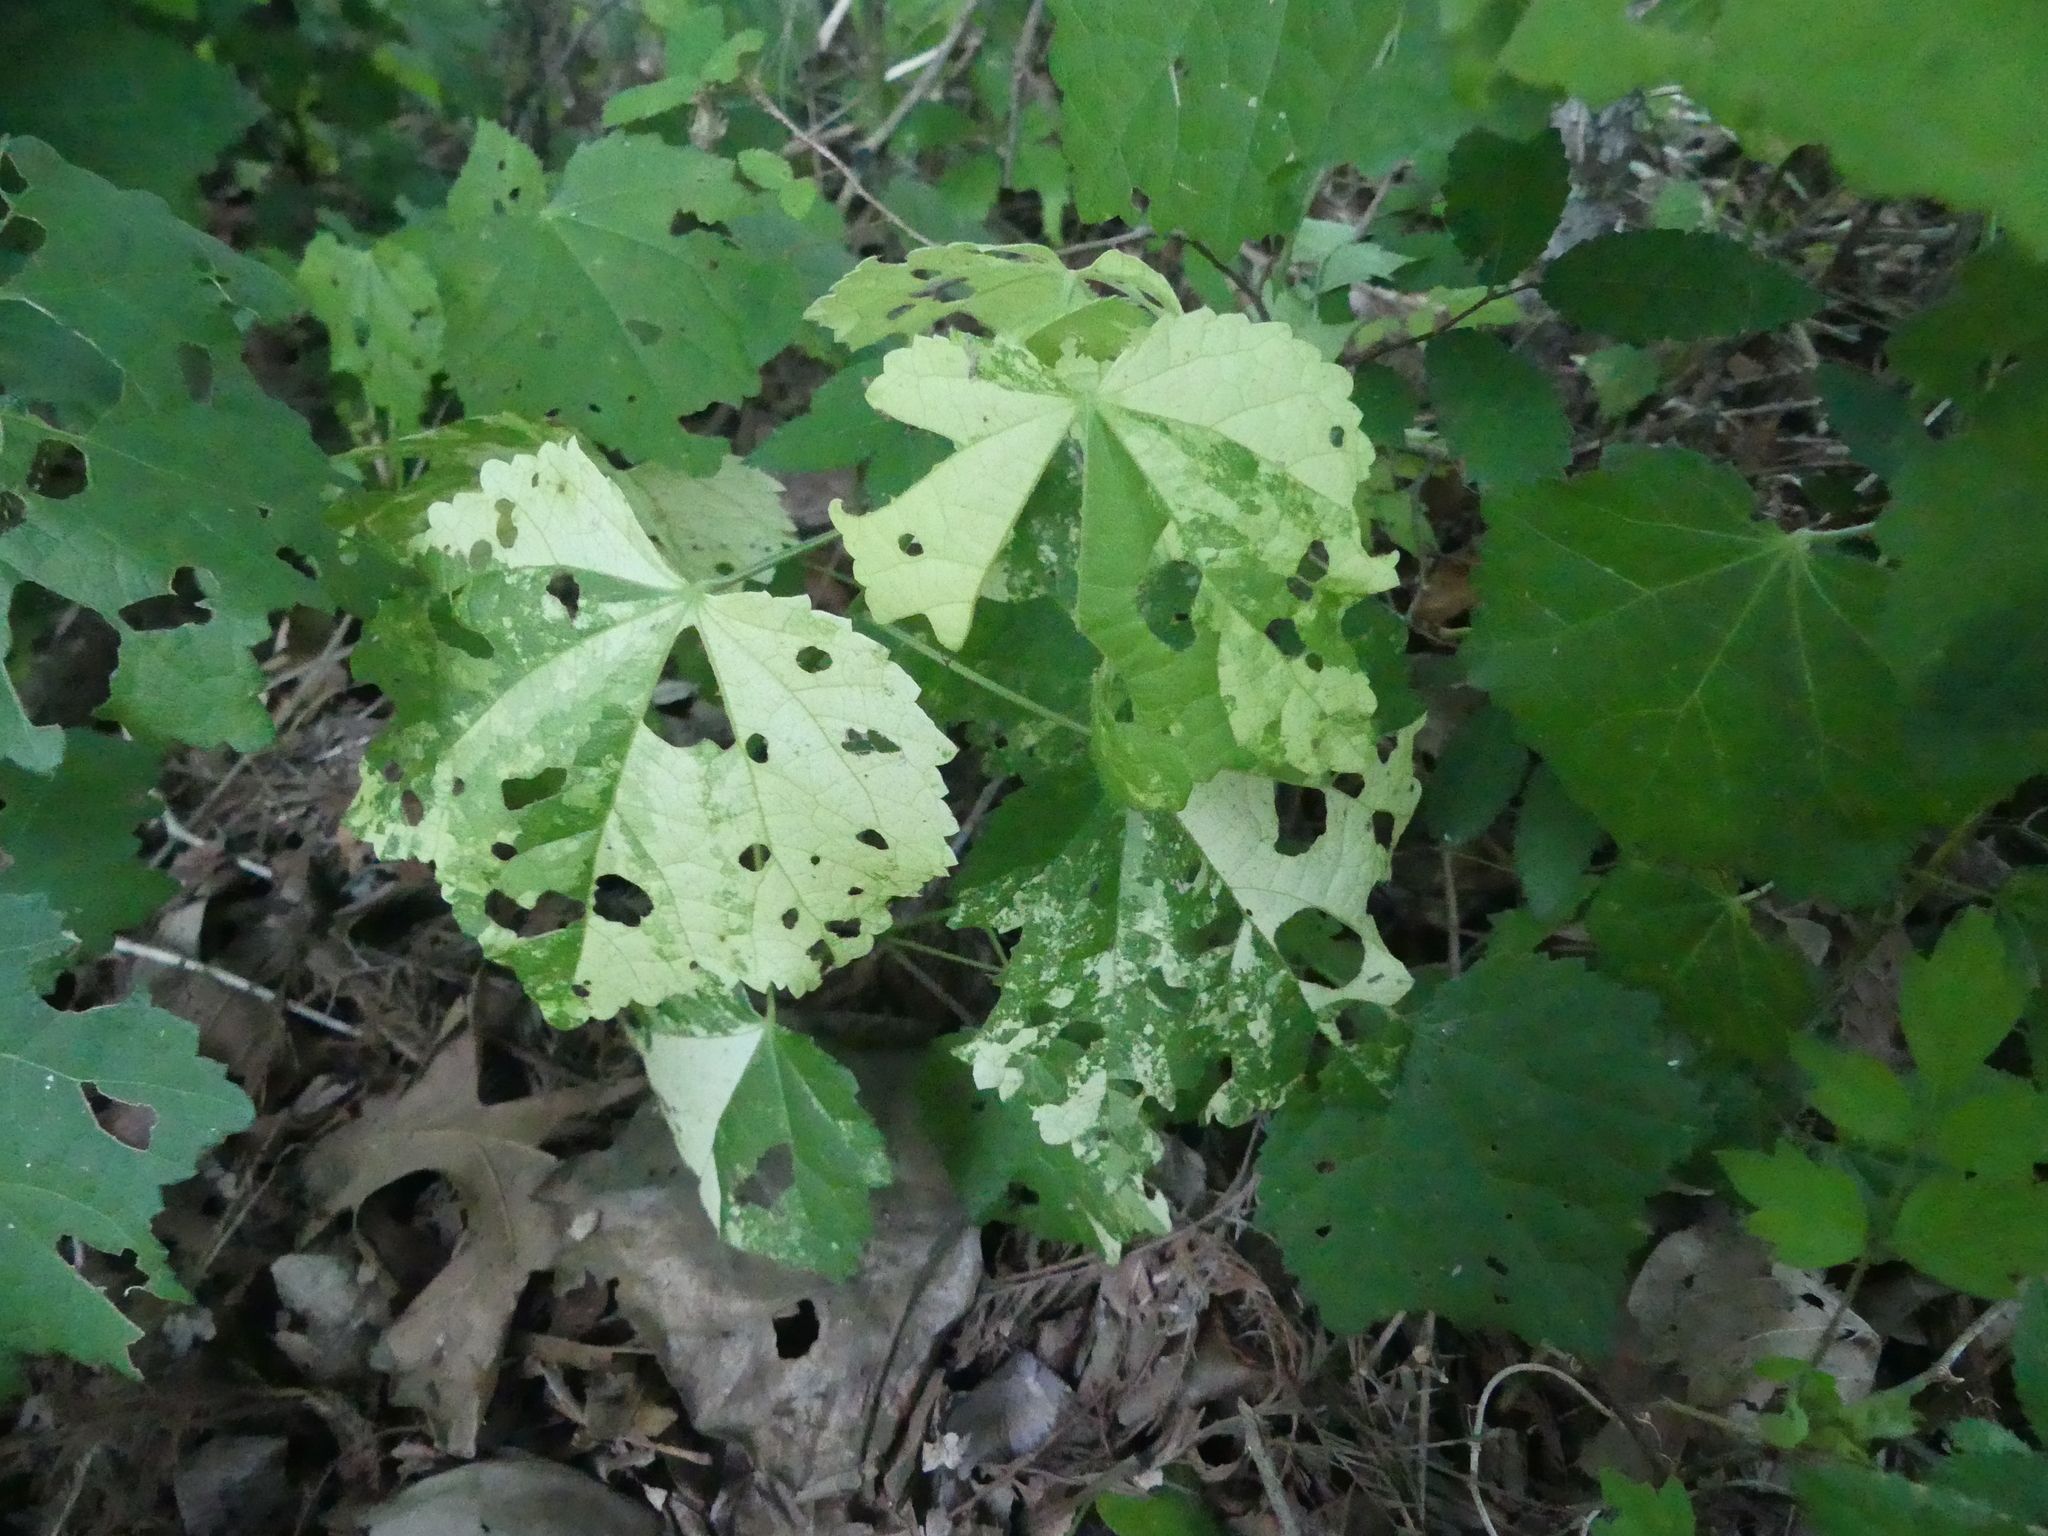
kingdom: Plantae
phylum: Tracheophyta
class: Magnoliopsida
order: Malvales
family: Malvaceae
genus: Malvaviscus
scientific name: Malvaviscus arboreus
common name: Wax mallow
